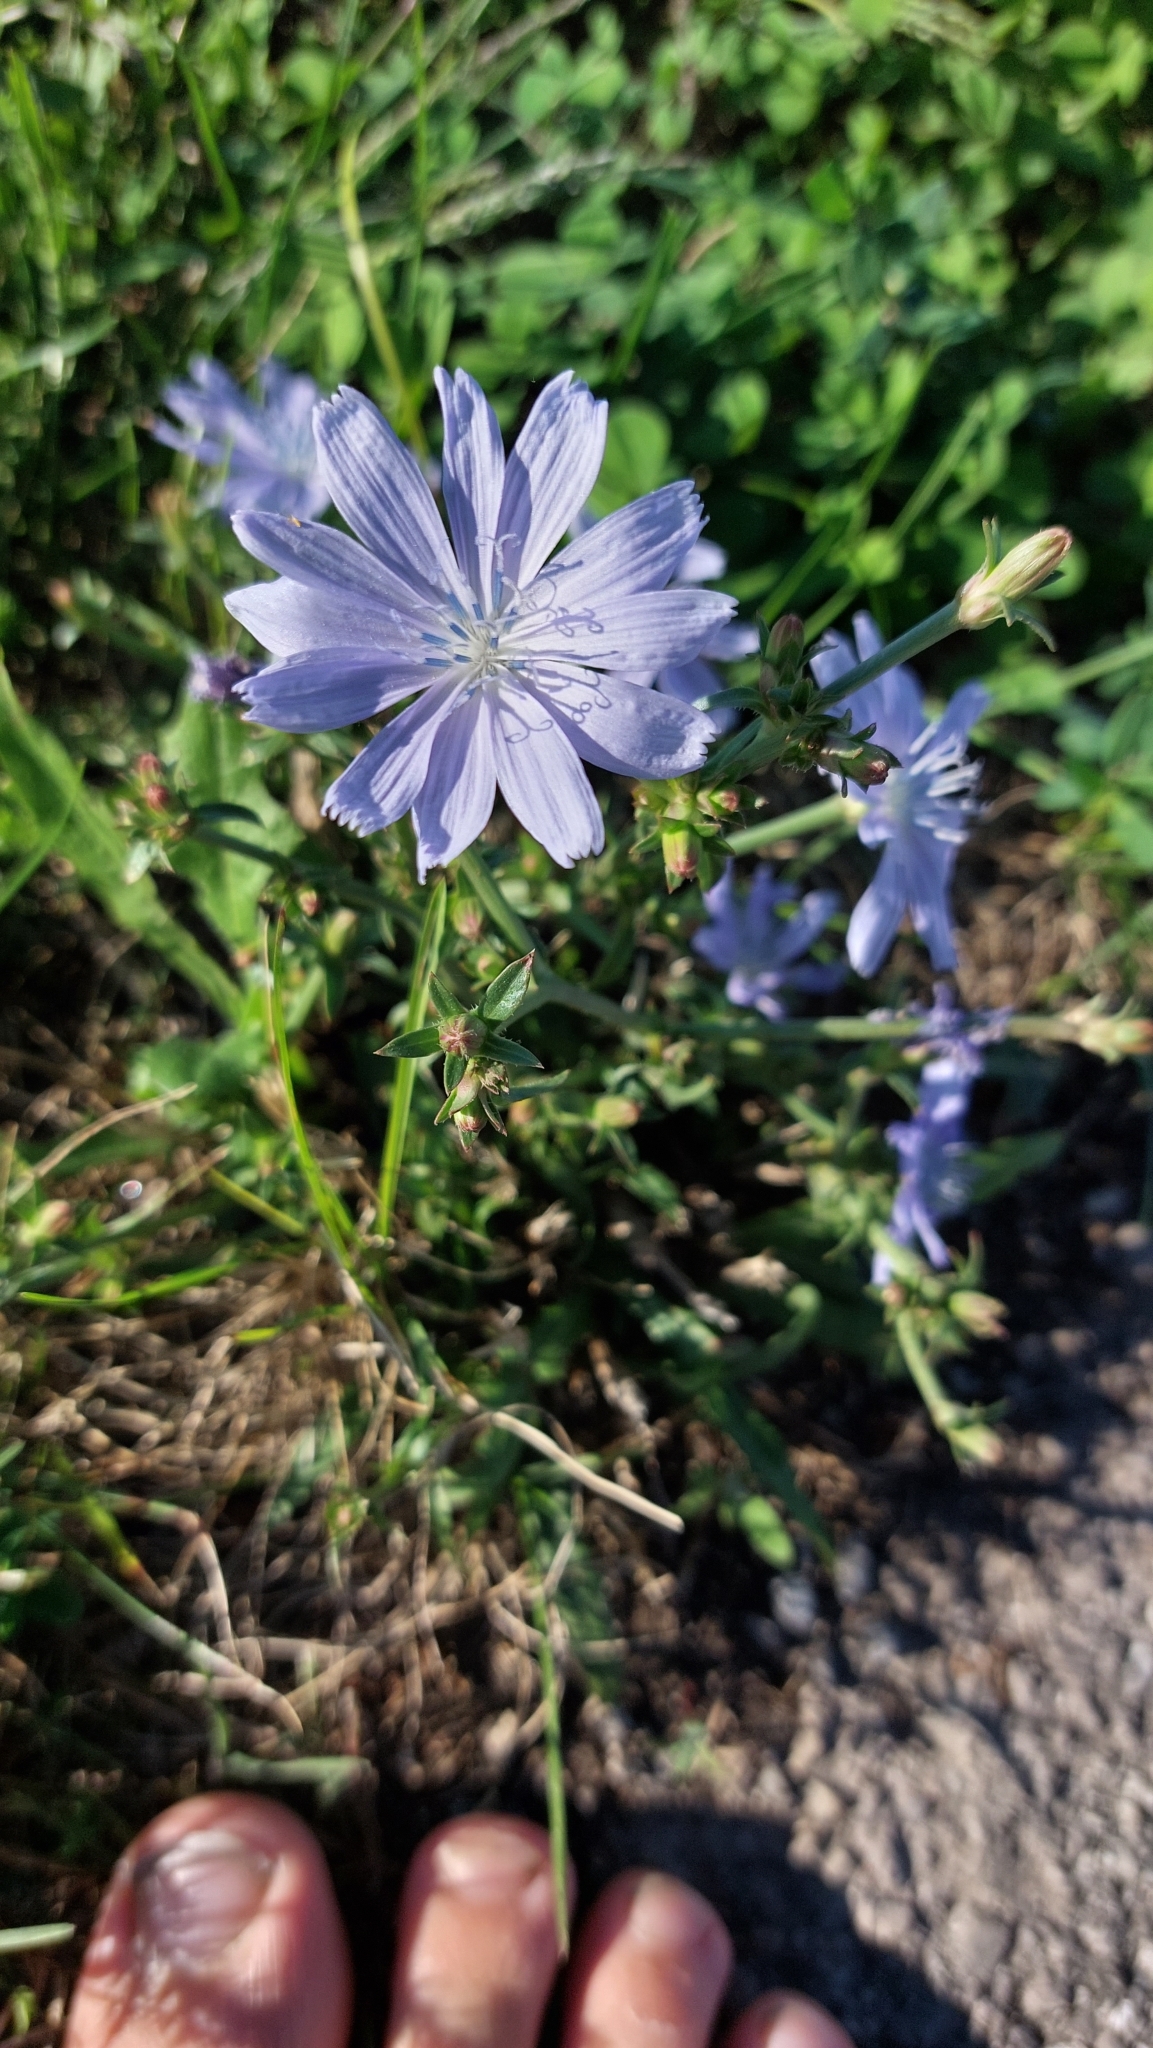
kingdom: Plantae
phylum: Tracheophyta
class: Magnoliopsida
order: Asterales
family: Asteraceae
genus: Cichorium
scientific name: Cichorium intybus
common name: Chicory
